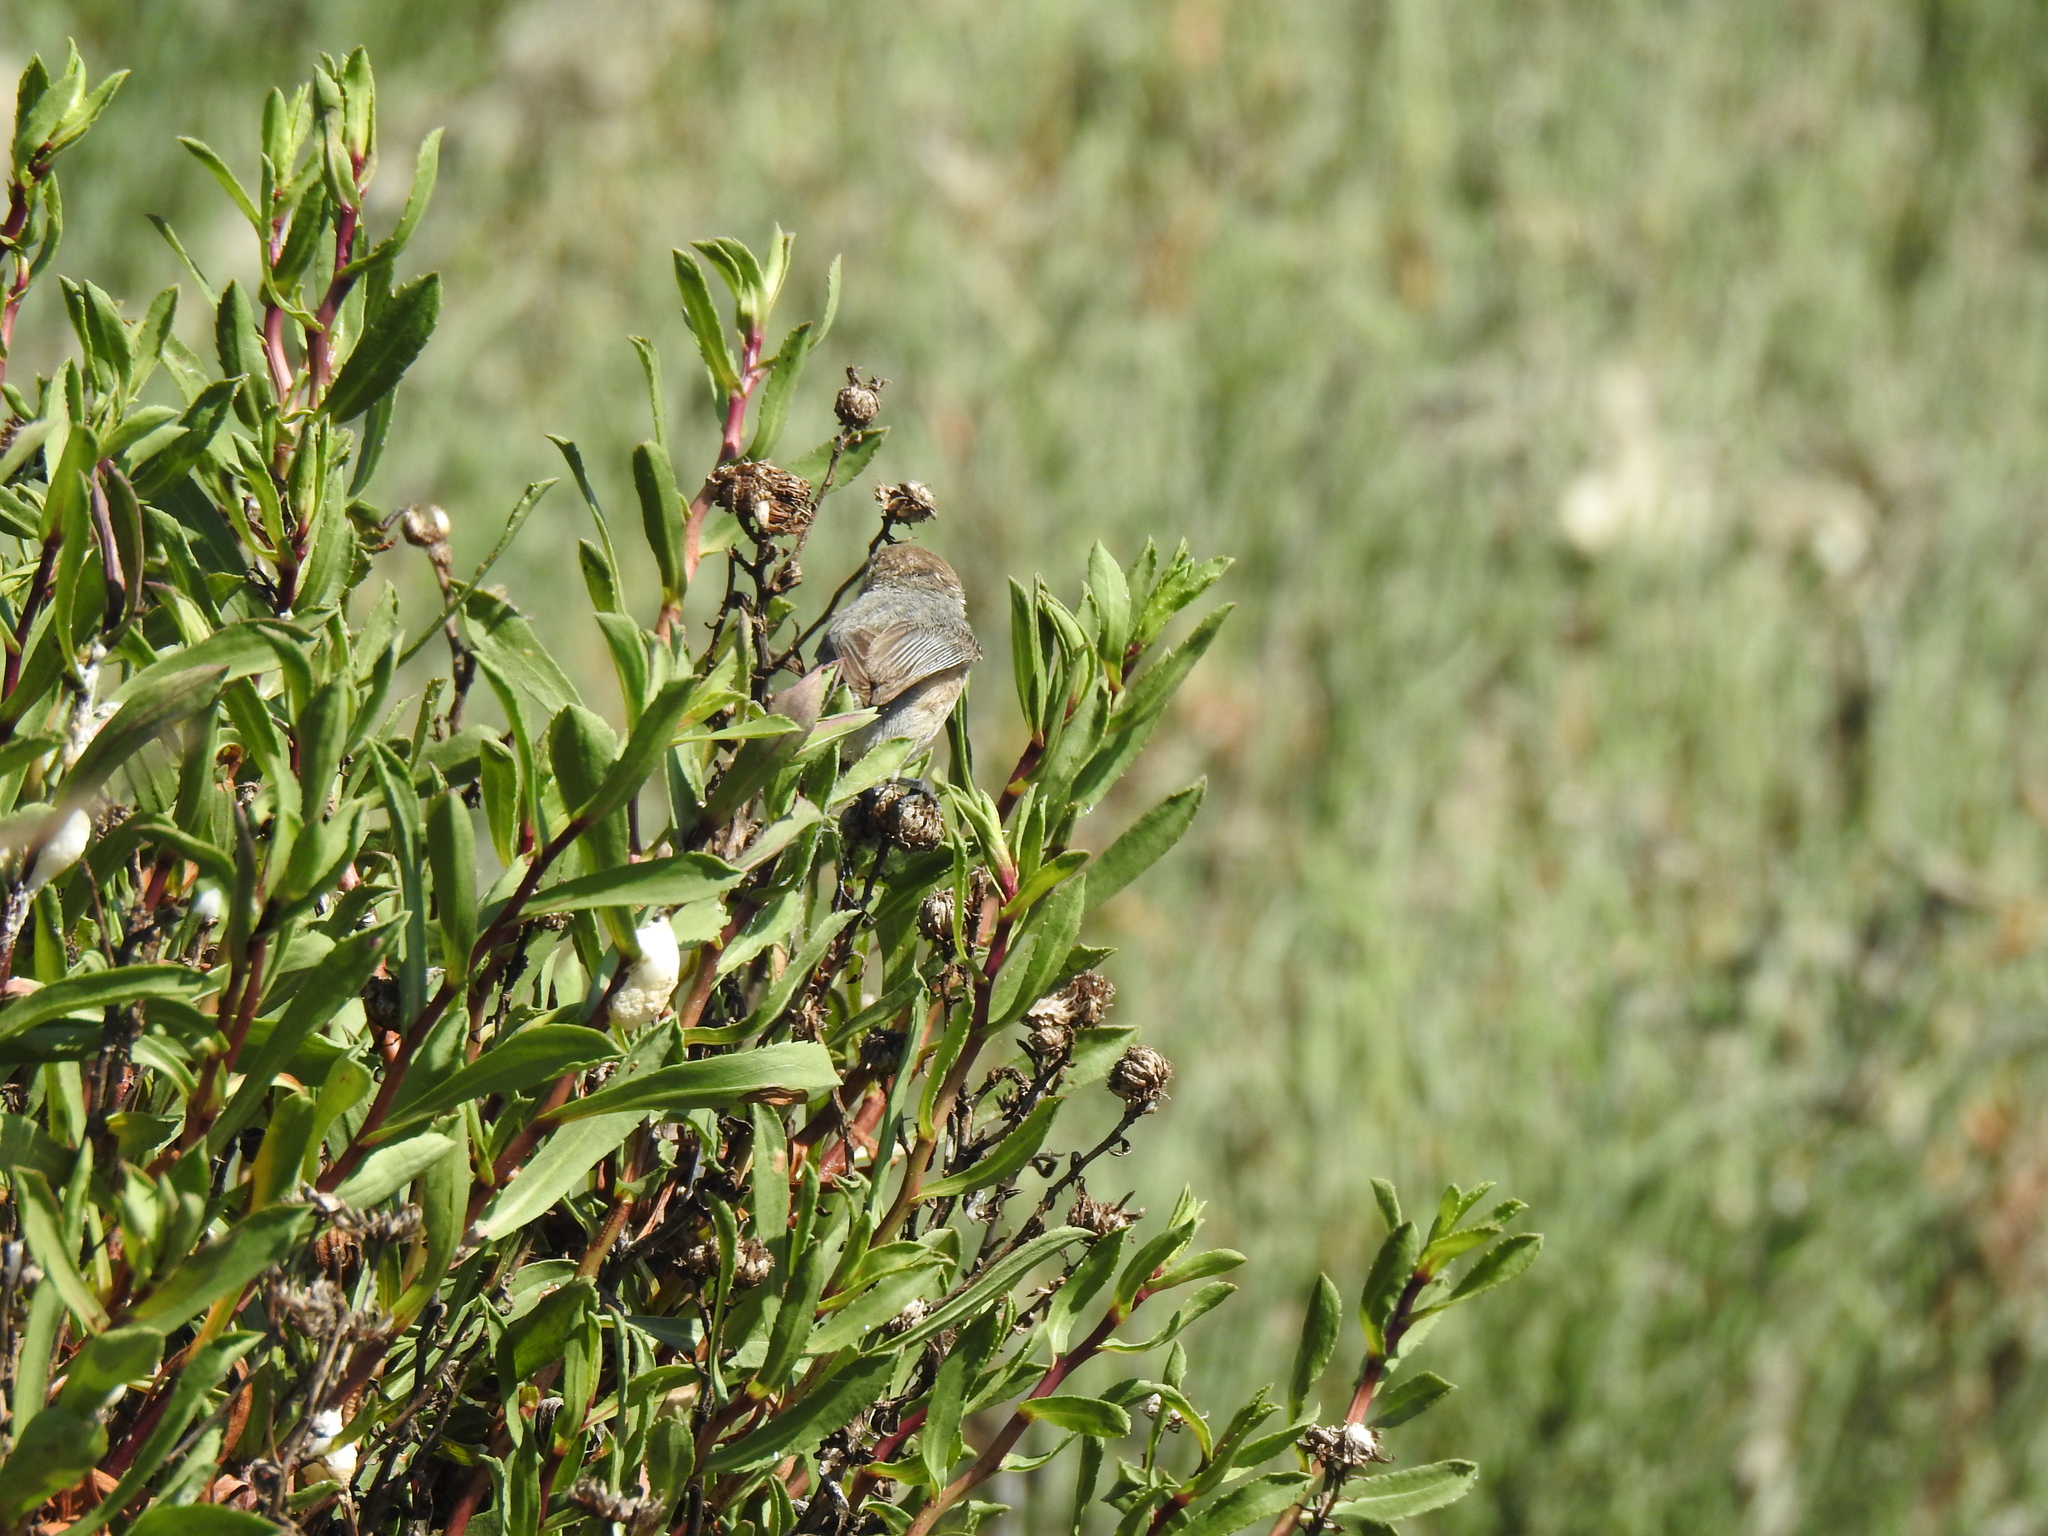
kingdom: Animalia
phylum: Chordata
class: Aves
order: Passeriformes
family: Aegithalidae
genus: Psaltriparus
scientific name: Psaltriparus minimus
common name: American bushtit
